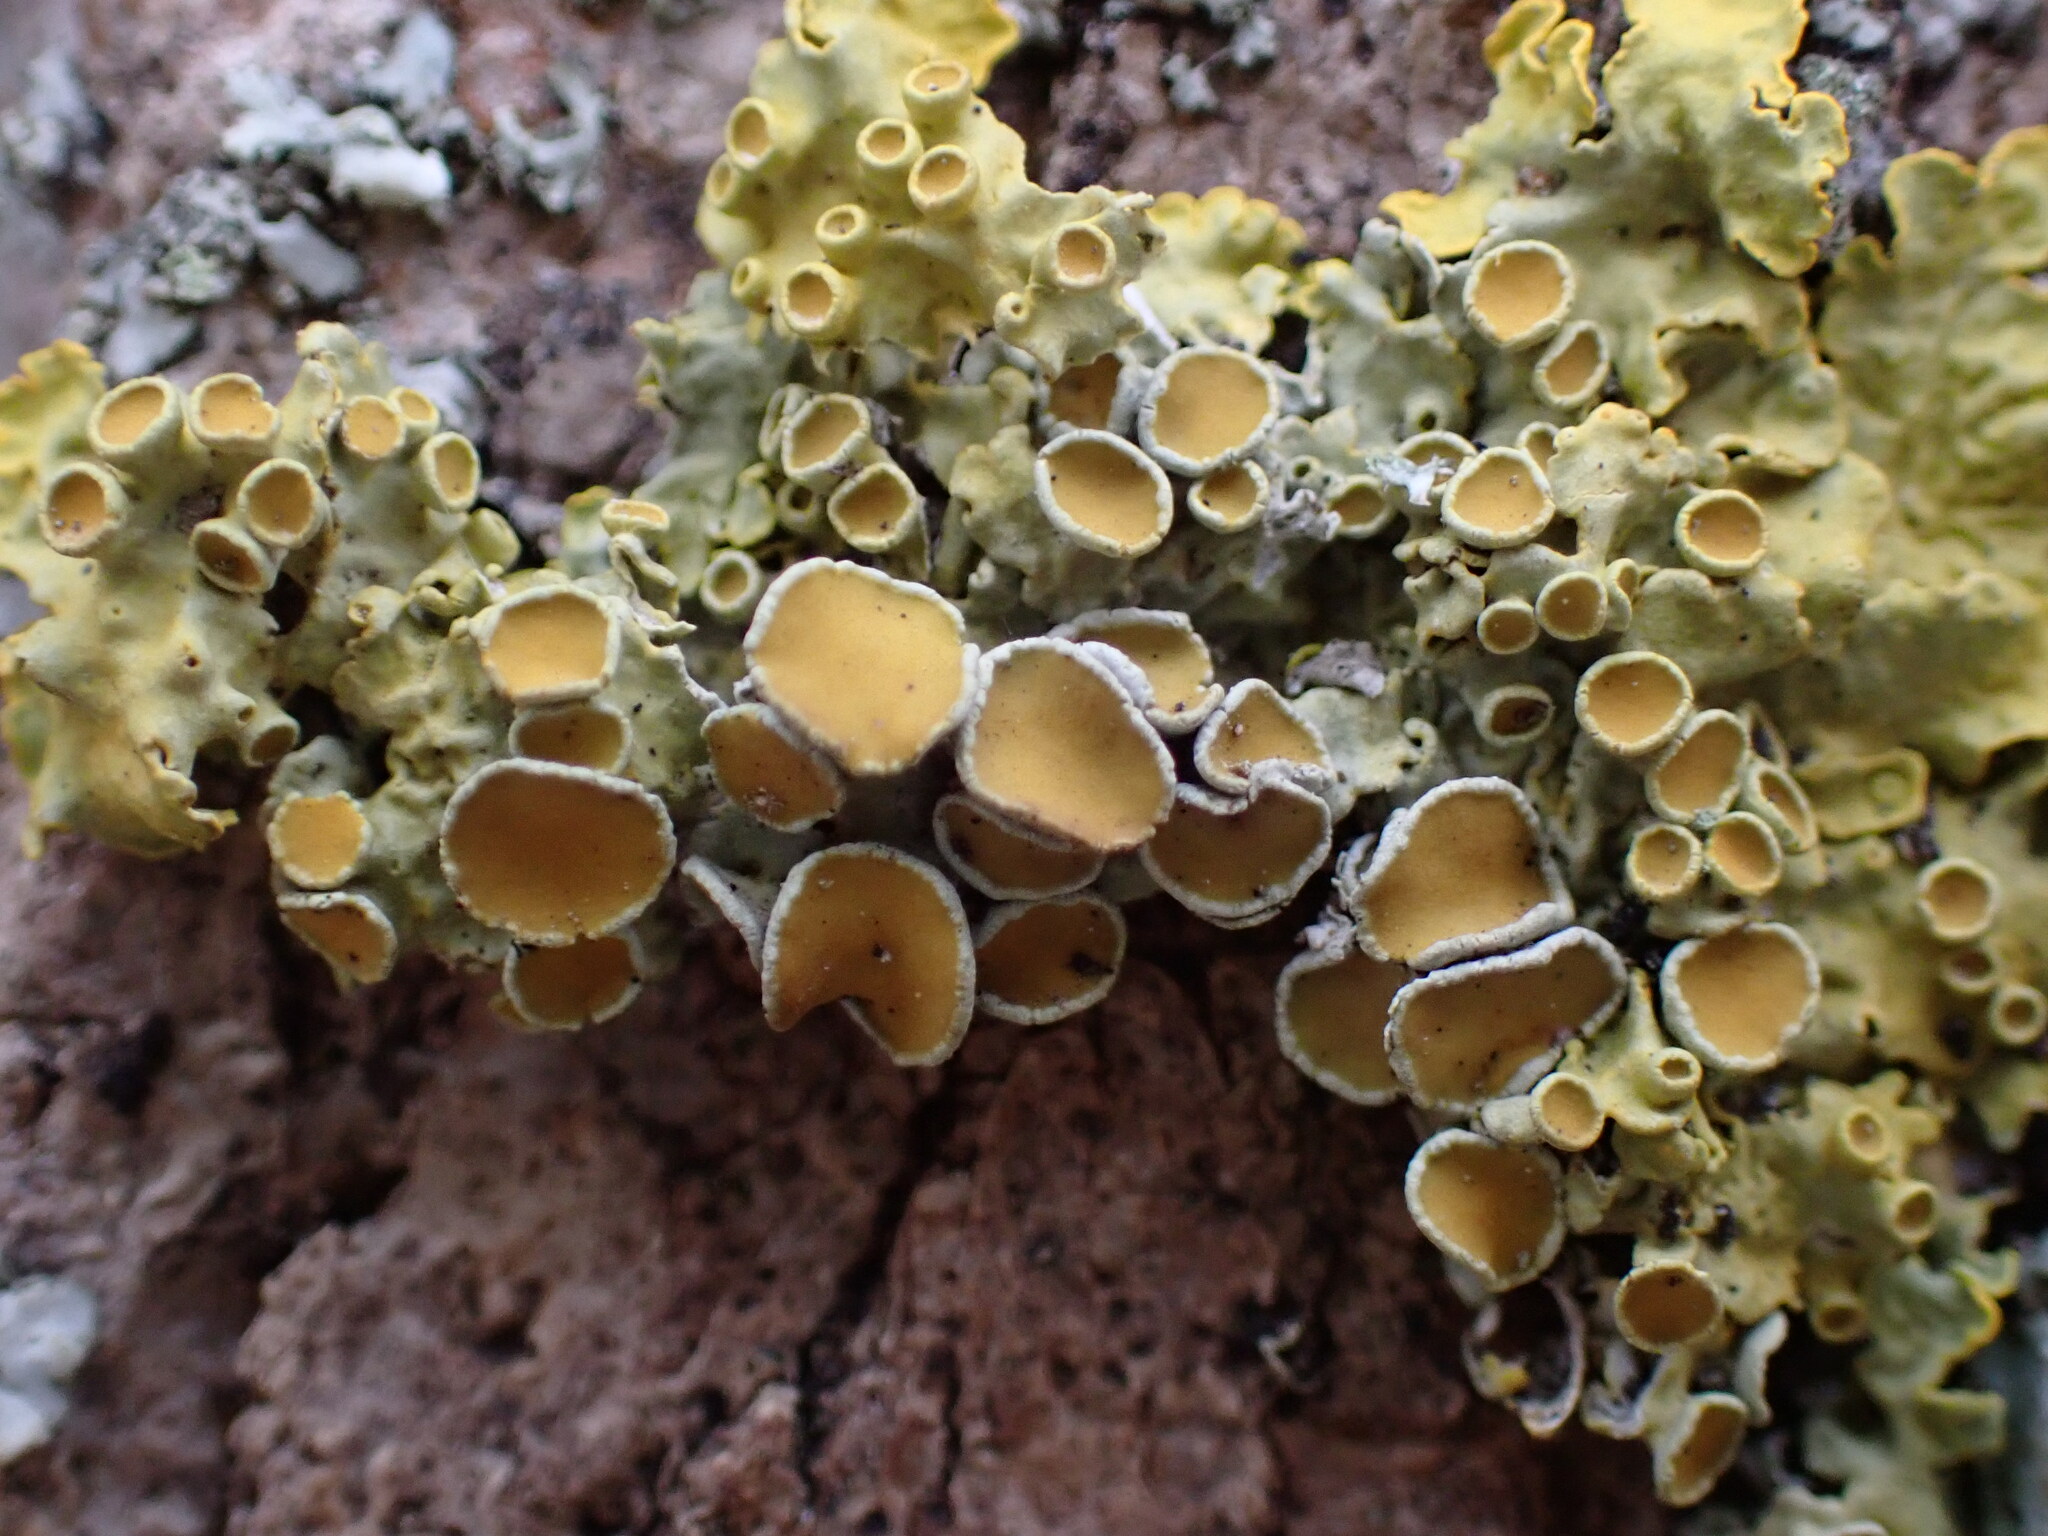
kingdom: Fungi
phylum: Ascomycota
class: Lecanoromycetes
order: Teloschistales
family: Teloschistaceae
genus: Xanthoria
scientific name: Xanthoria parietina
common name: Common orange lichen
